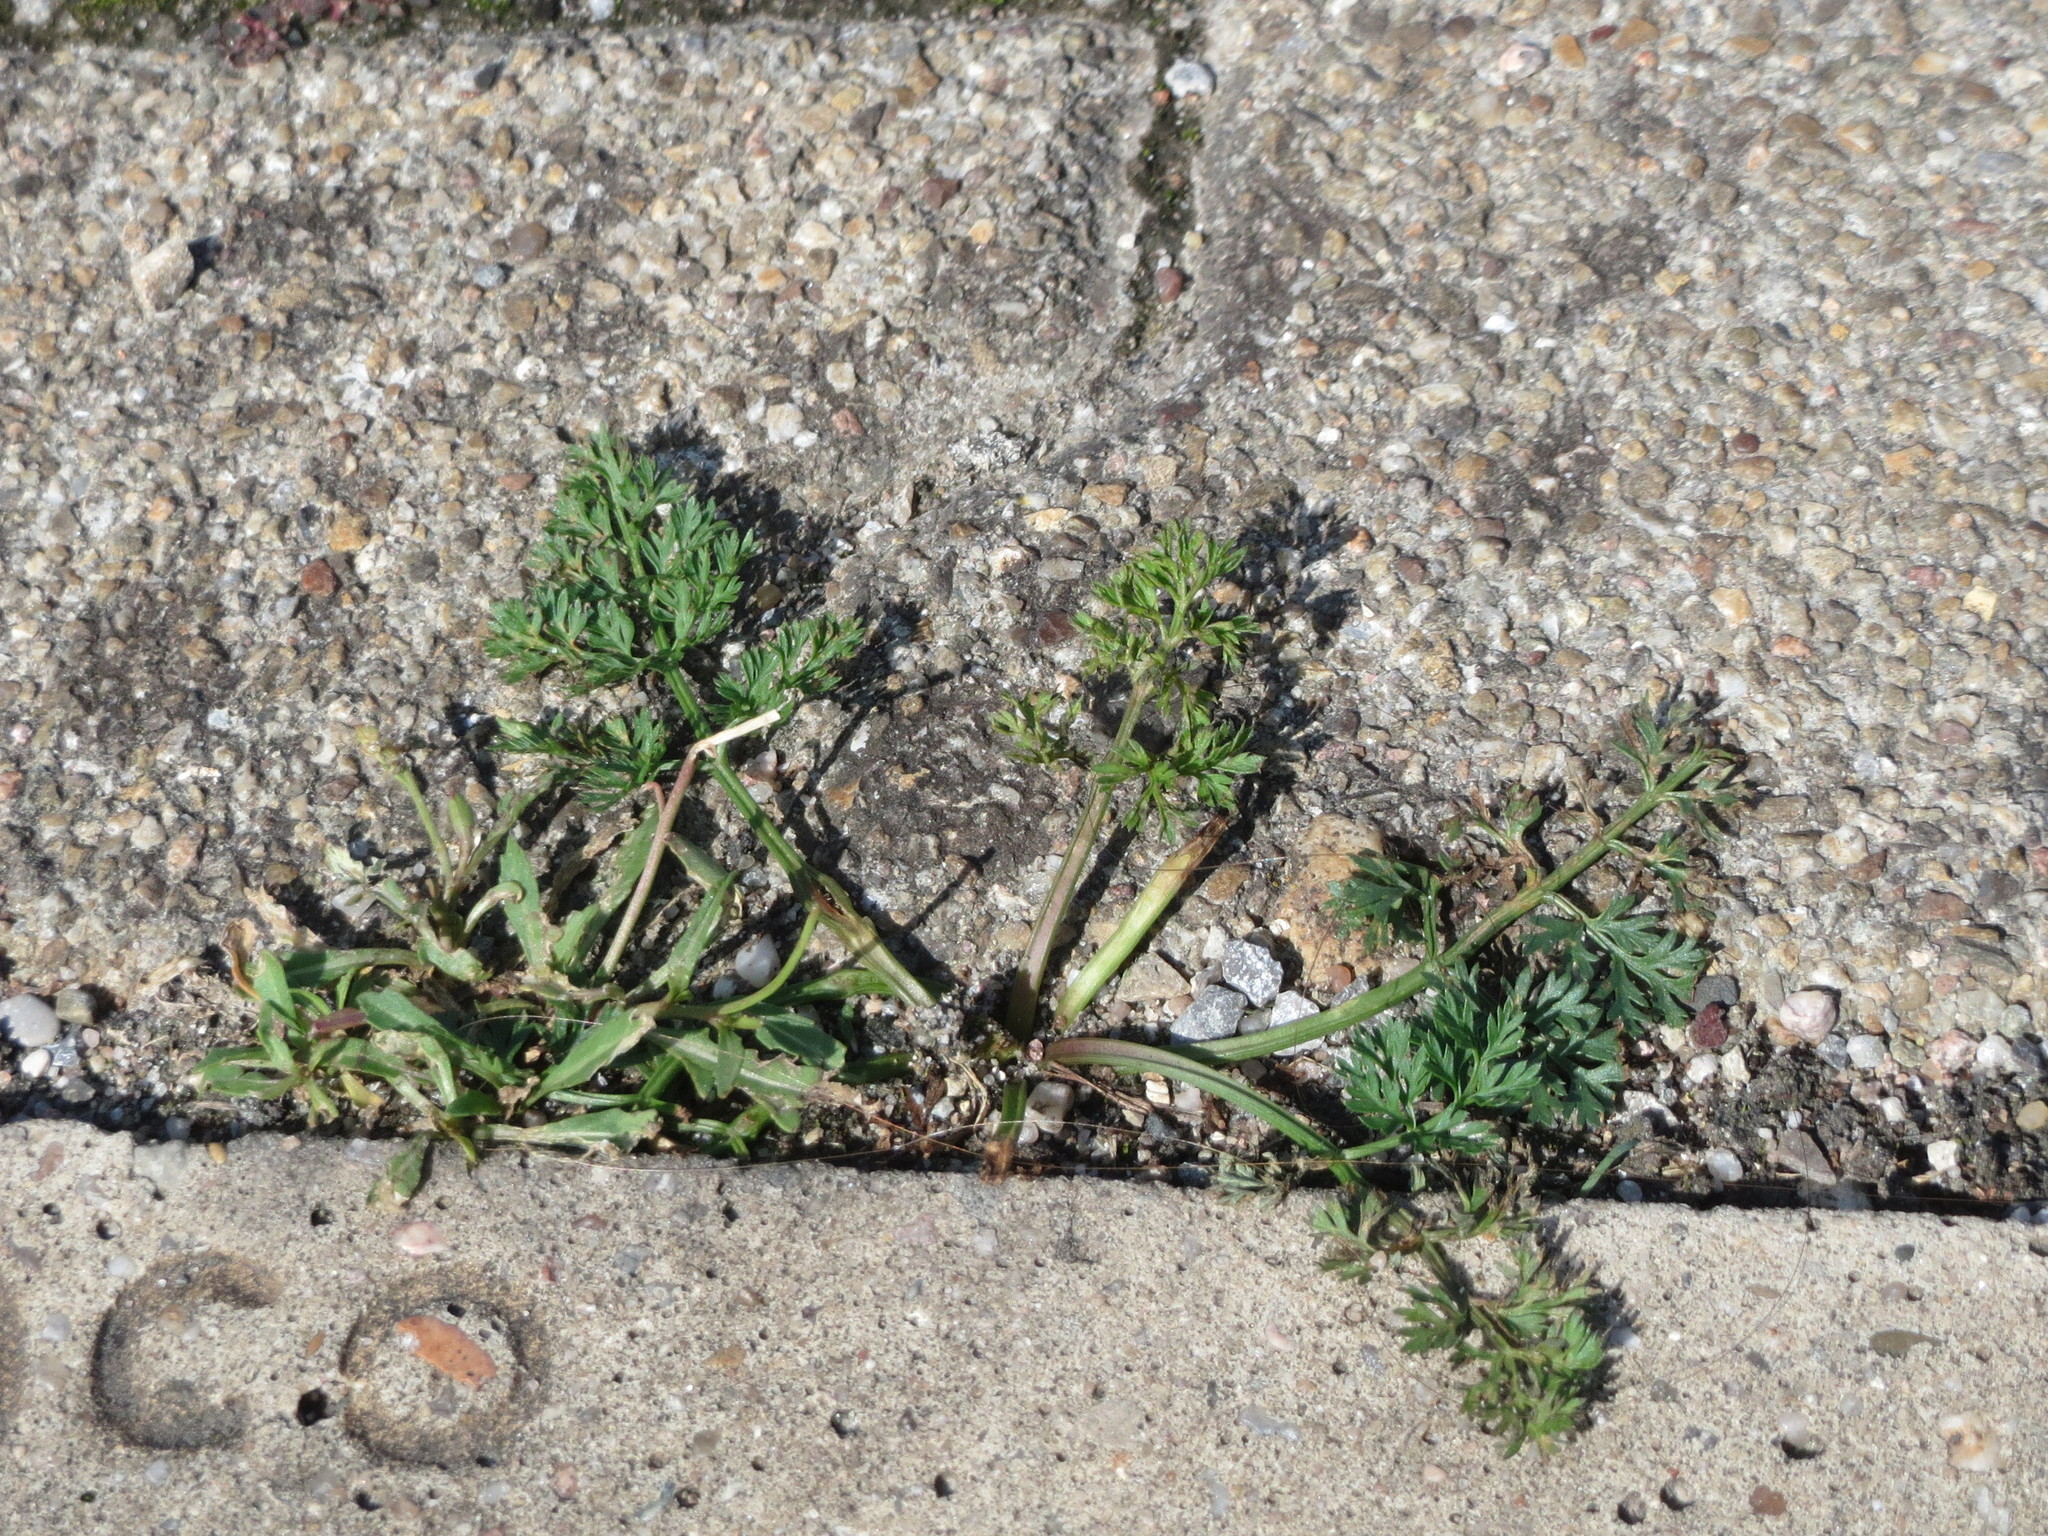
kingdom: Plantae
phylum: Tracheophyta
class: Magnoliopsida
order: Geraniales
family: Geraniaceae
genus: Erodium
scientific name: Erodium cicutarium
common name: Common stork's-bill
